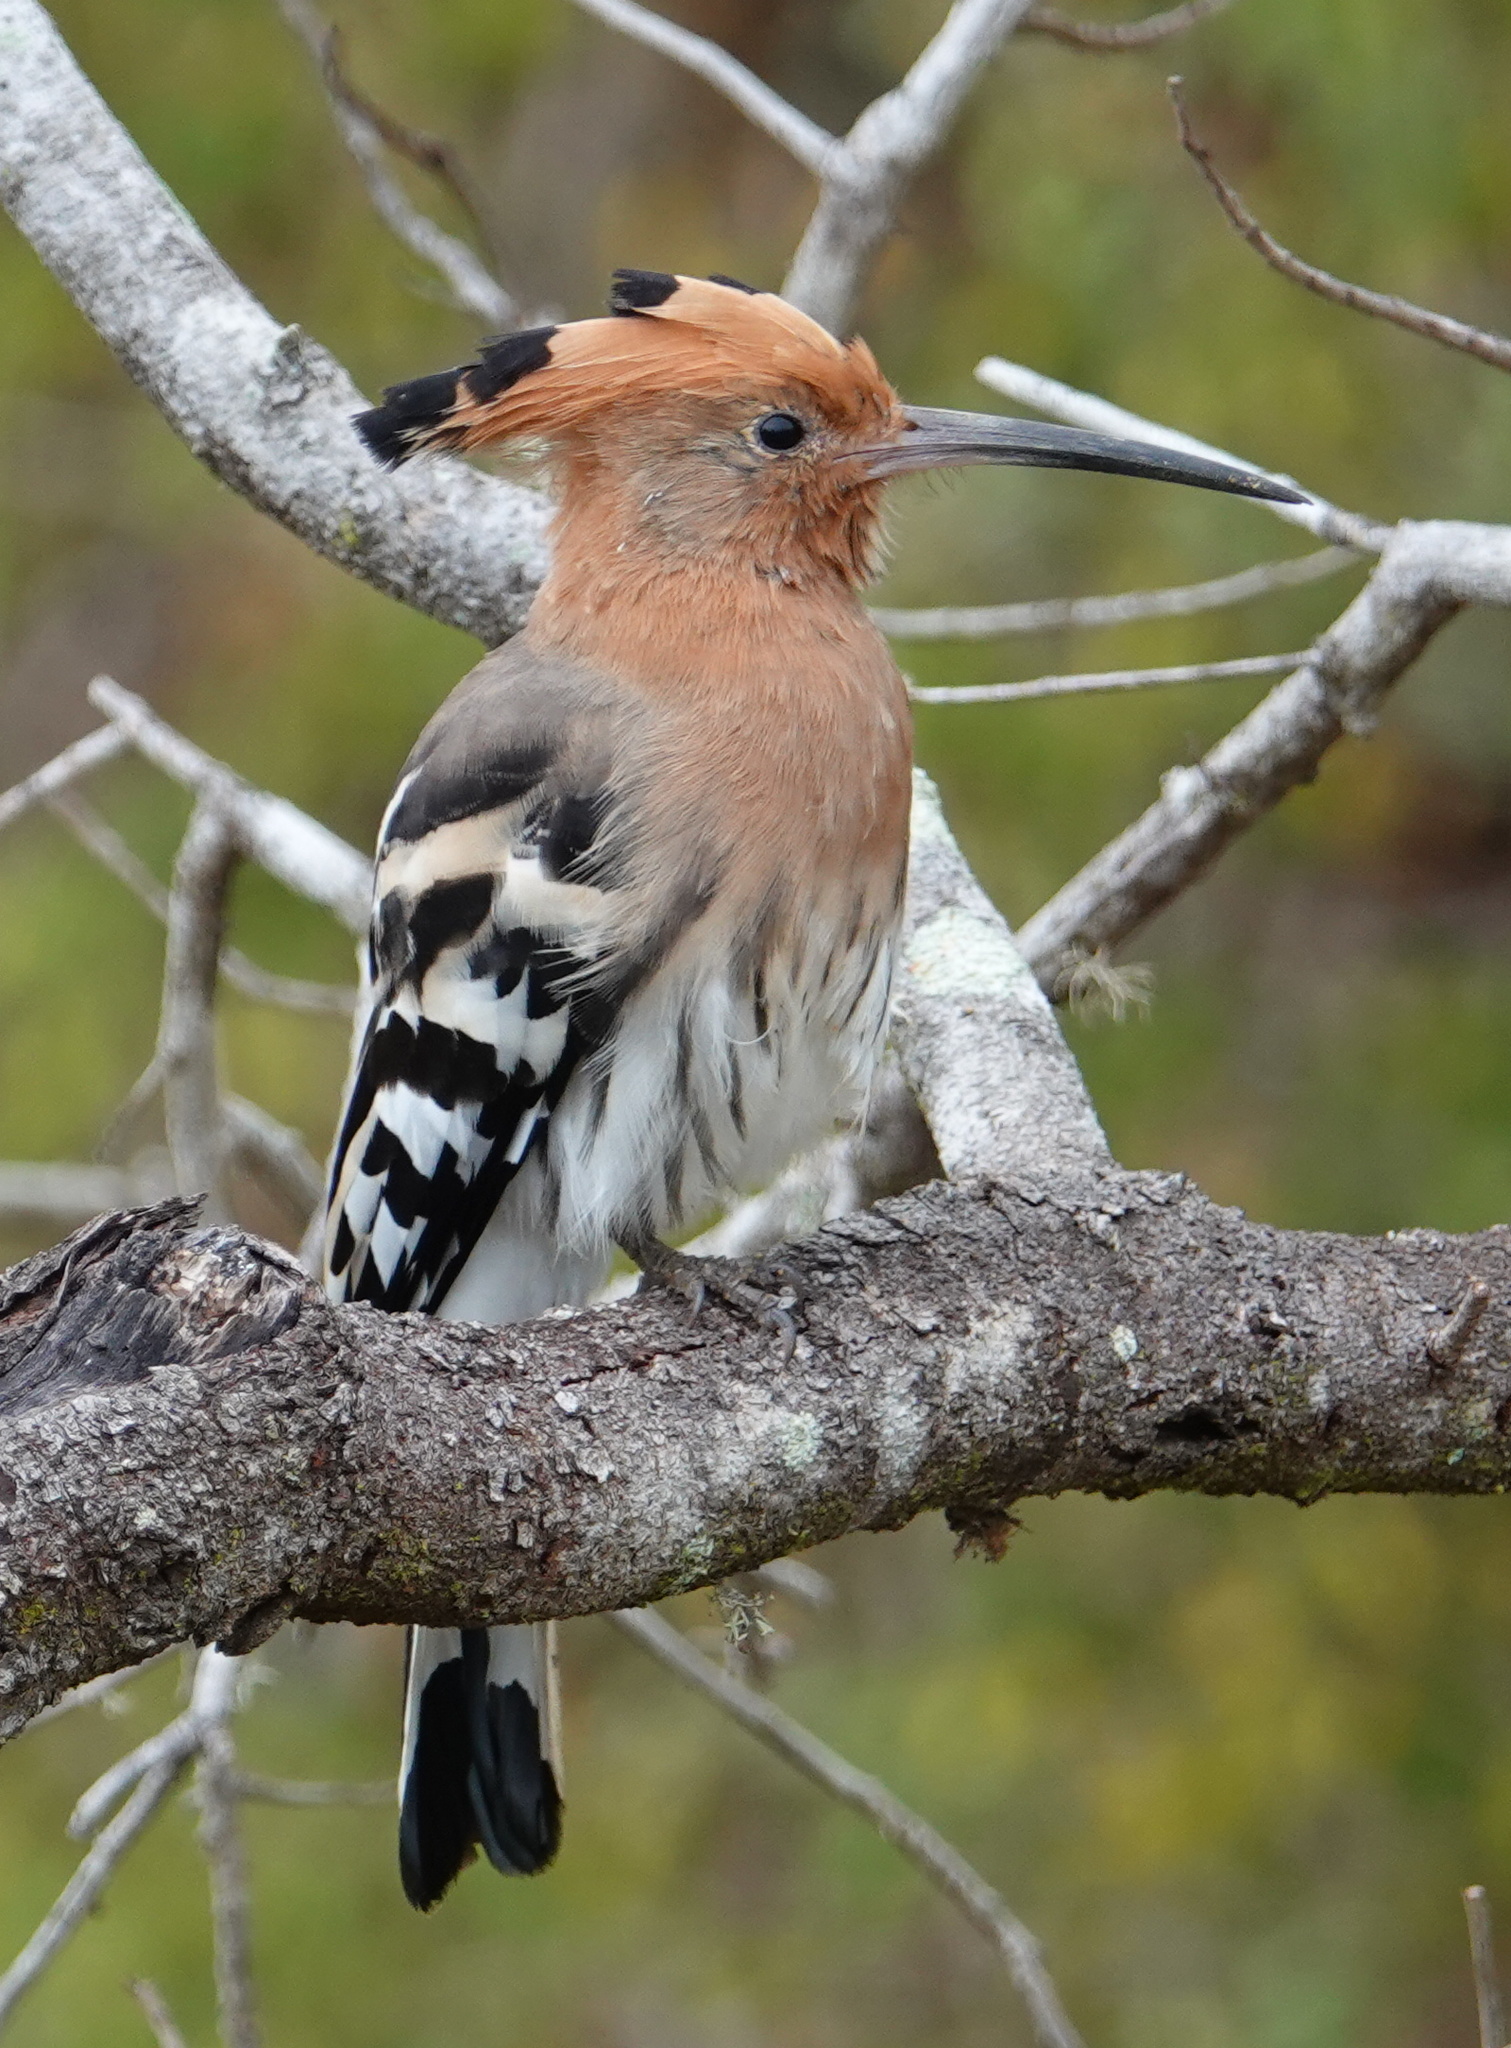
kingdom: Animalia
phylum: Chordata
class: Aves
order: Bucerotiformes
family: Upupidae
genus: Upupa
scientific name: Upupa epops
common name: Eurasian hoopoe
